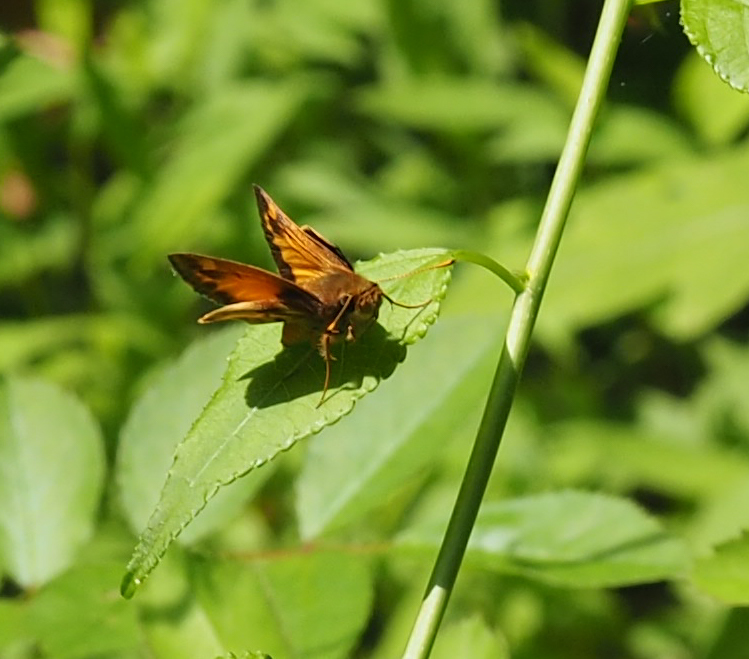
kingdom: Animalia
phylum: Arthropoda
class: Insecta
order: Lepidoptera
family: Hesperiidae
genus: Lon
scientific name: Lon zabulon
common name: Zabulon skipper
